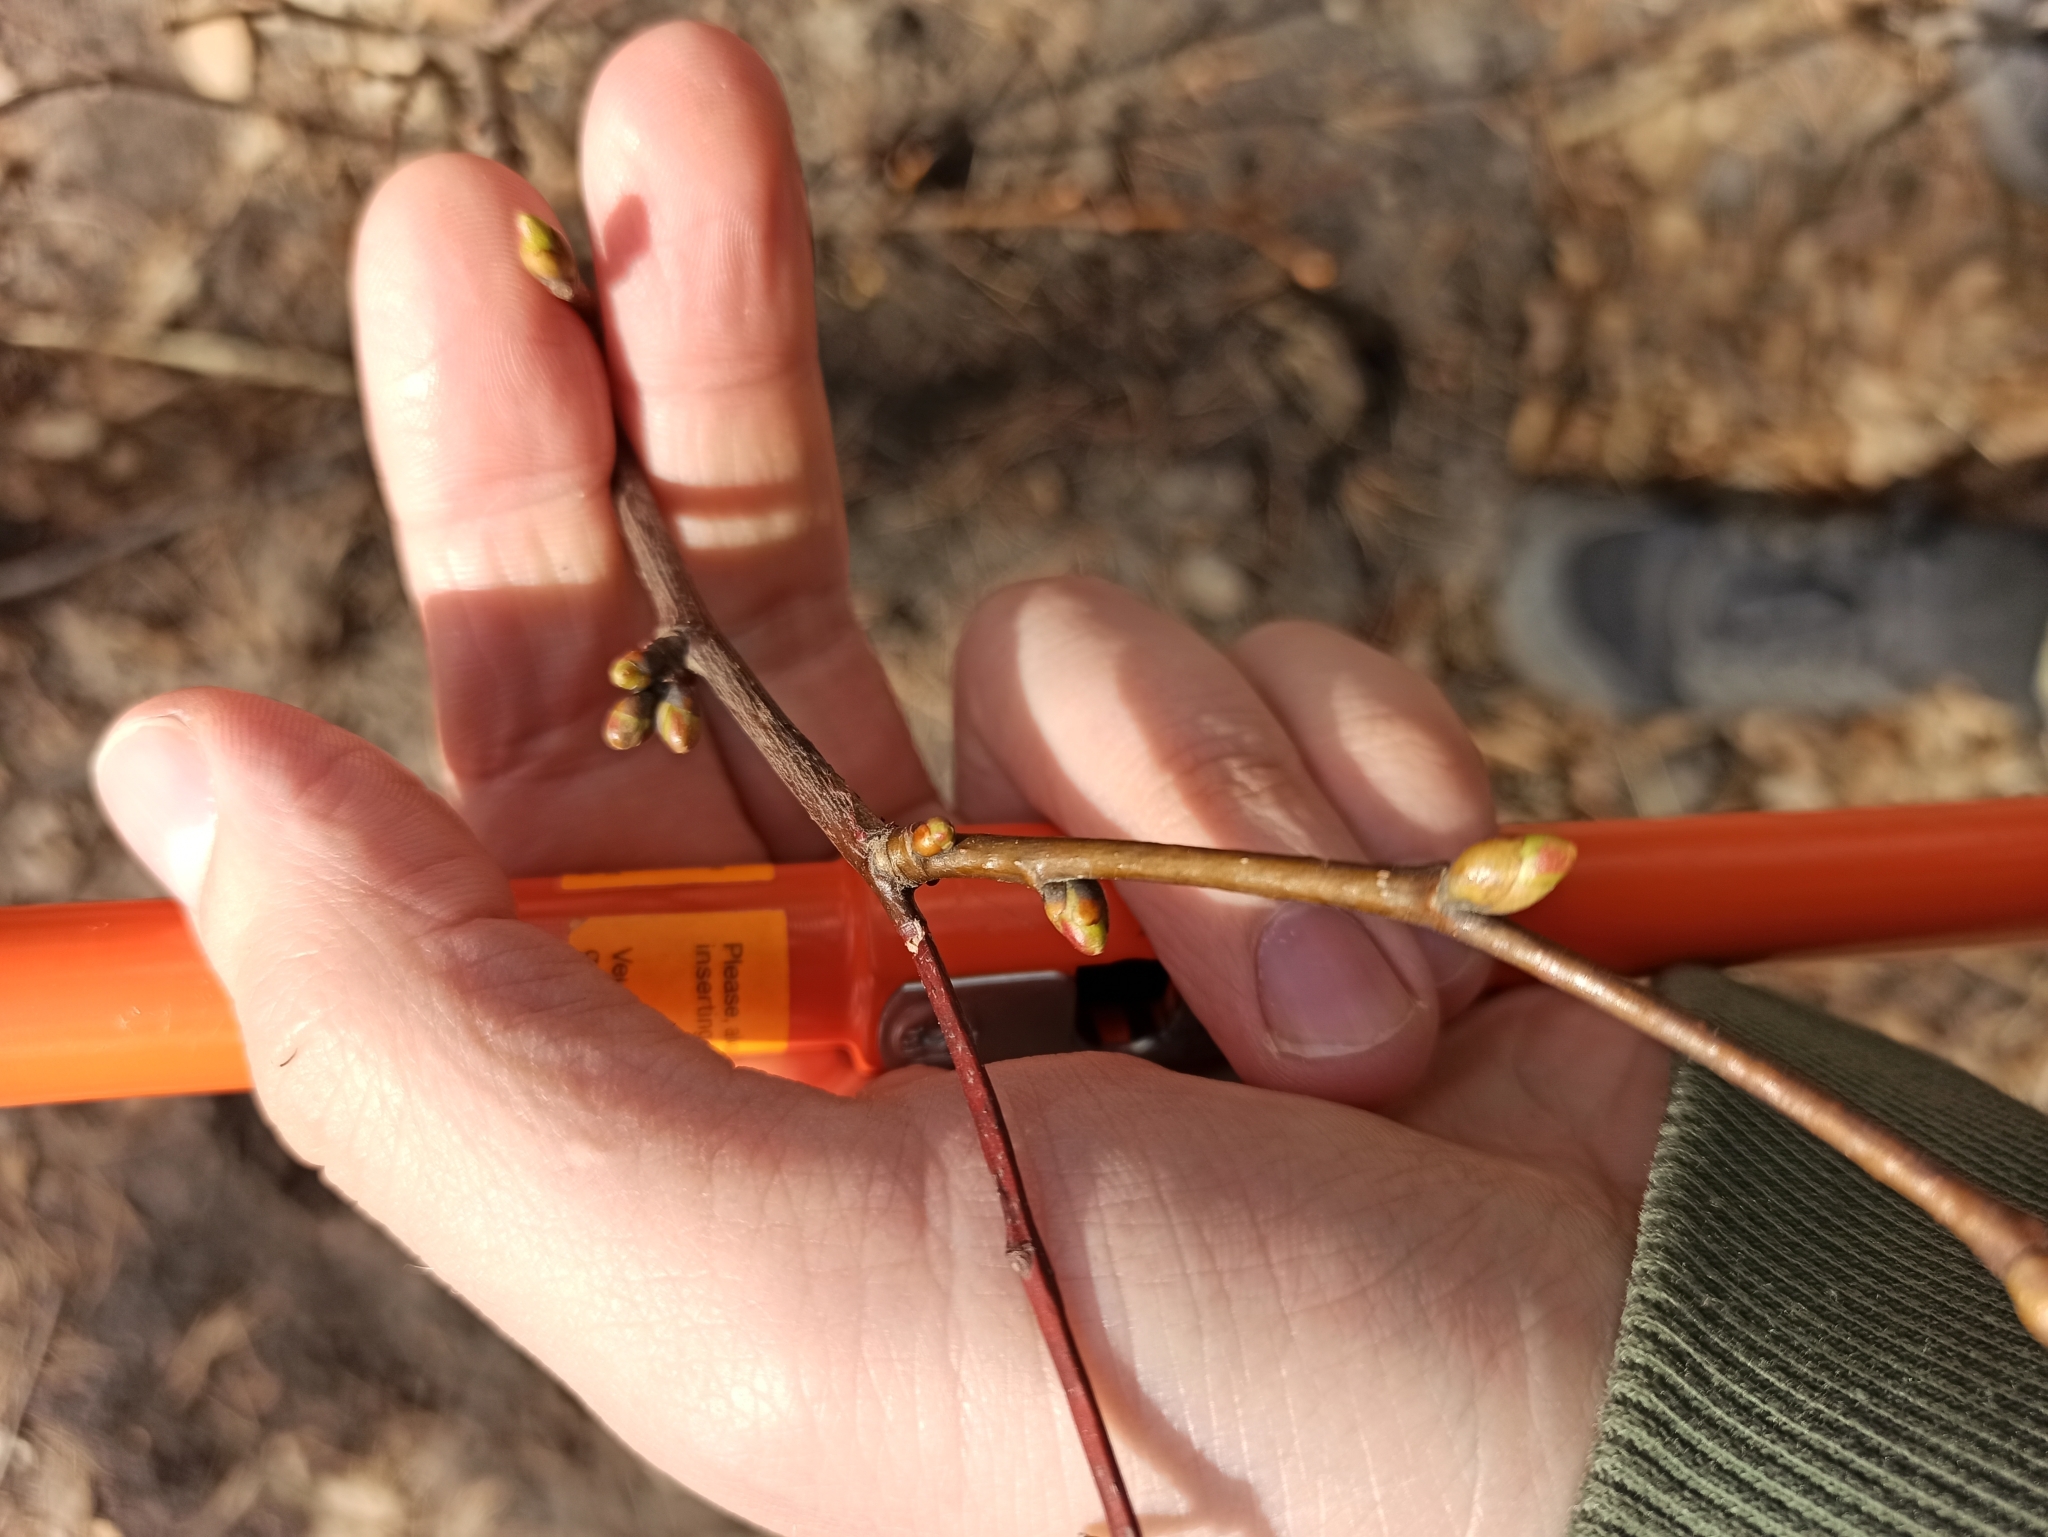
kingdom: Plantae
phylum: Tracheophyta
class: Magnoliopsida
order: Malvales
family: Malvaceae
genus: Tilia
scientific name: Tilia cordata
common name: Small-leaved lime
